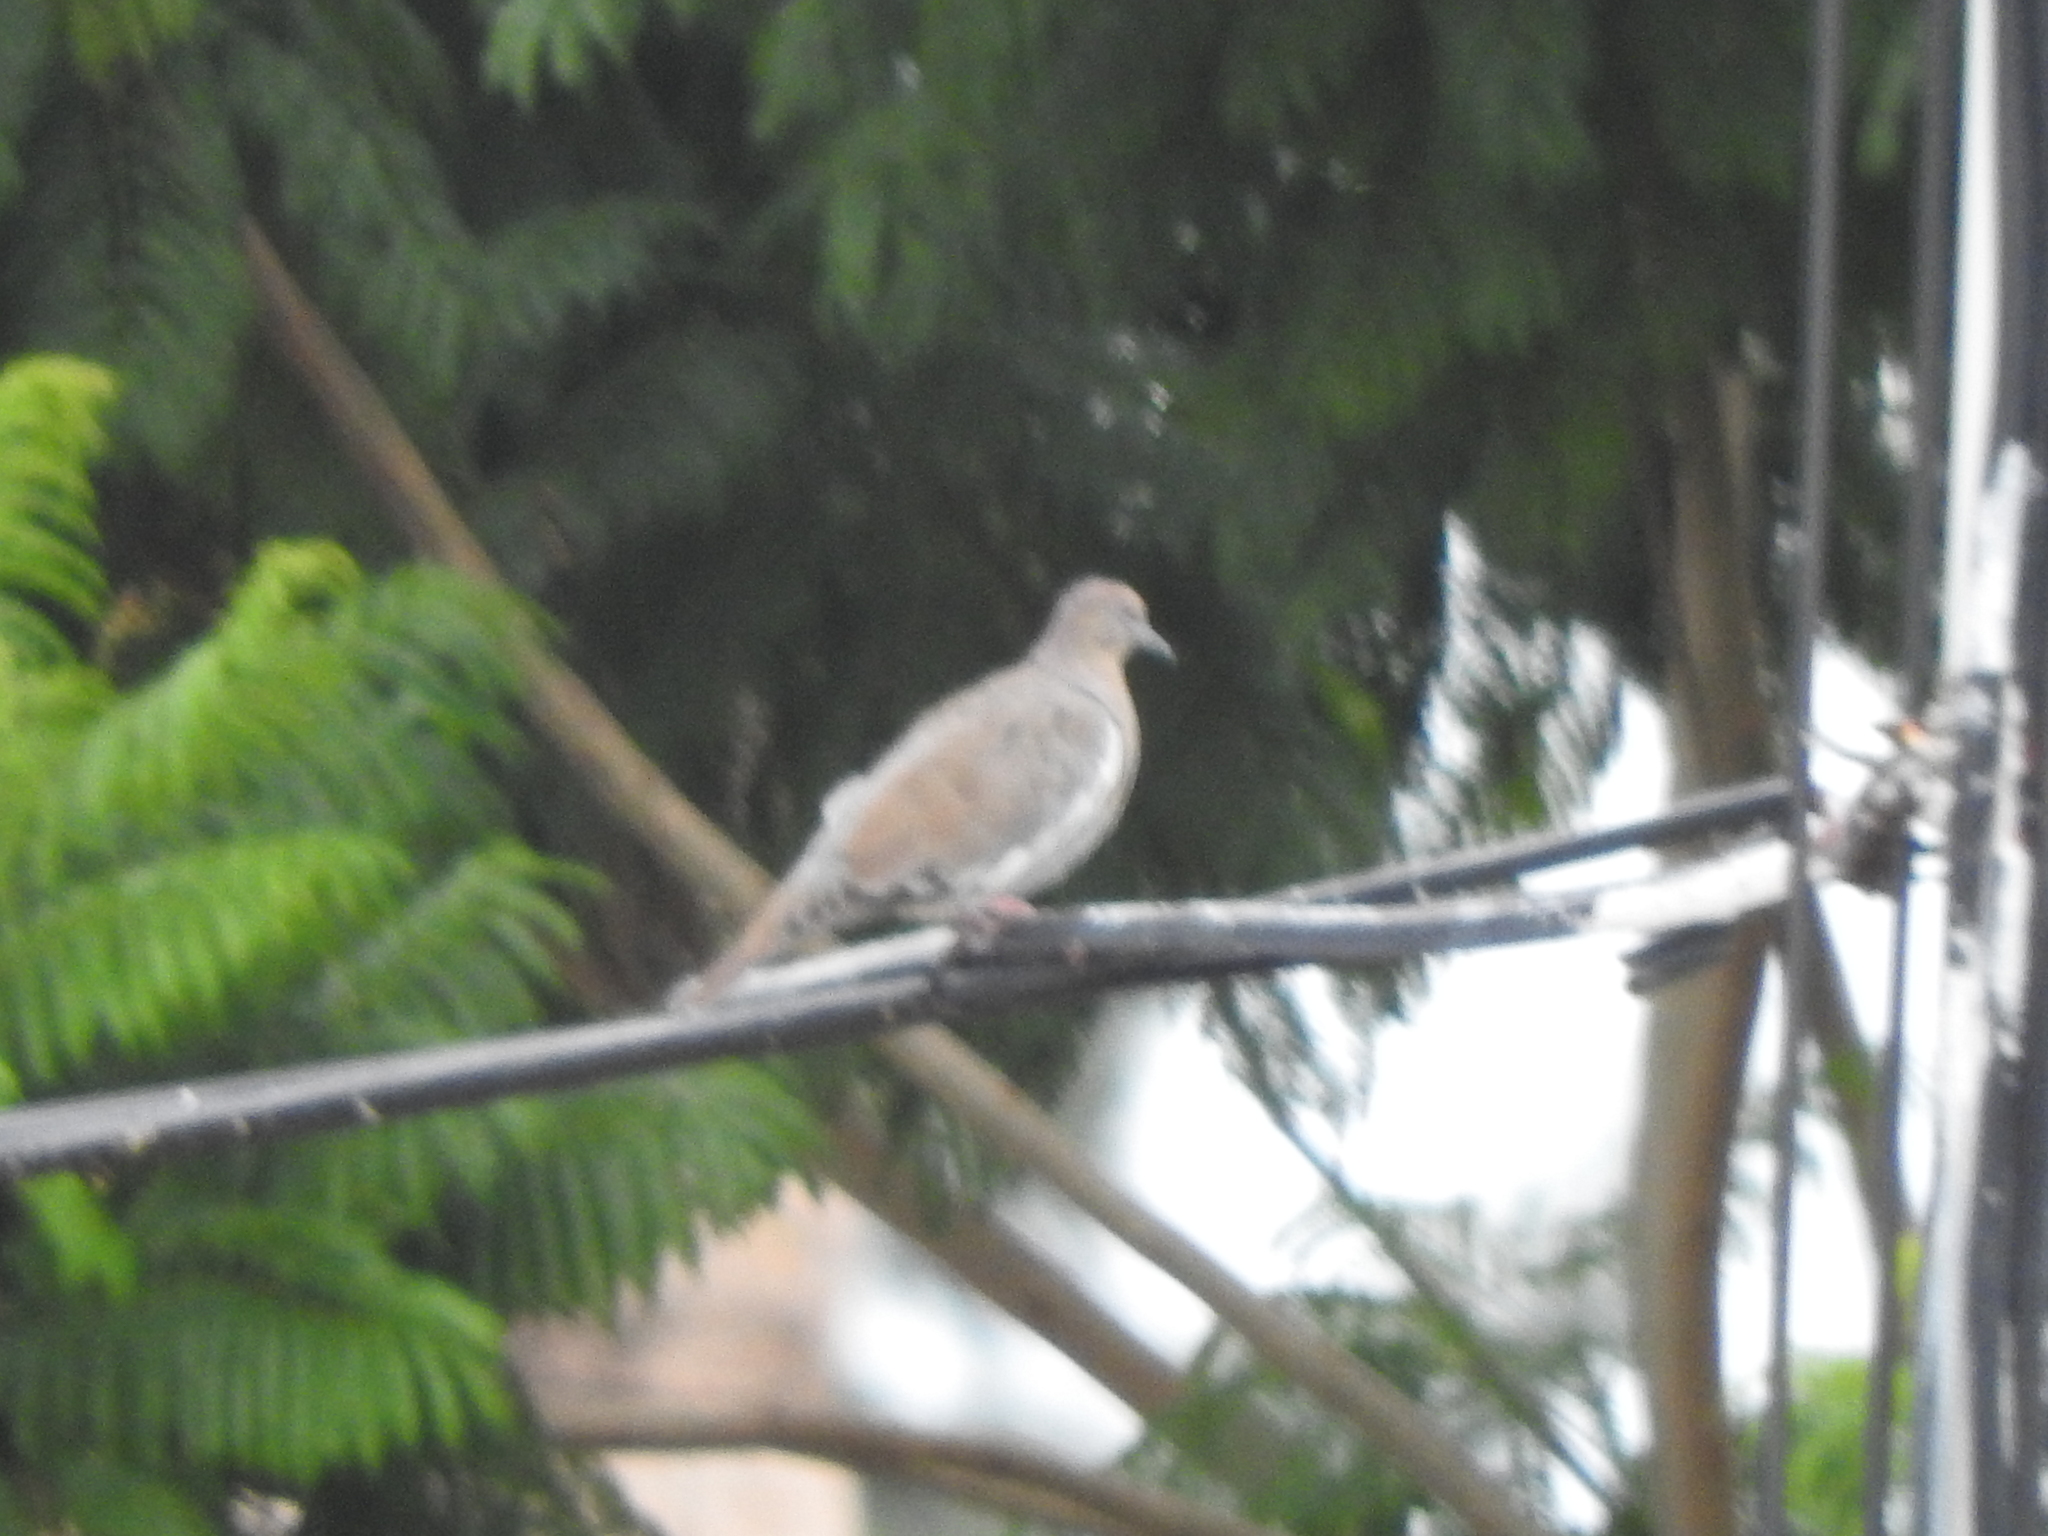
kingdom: Animalia
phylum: Chordata
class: Aves
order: Columbiformes
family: Columbidae
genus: Zenaida
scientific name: Zenaida asiatica
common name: White-winged dove
